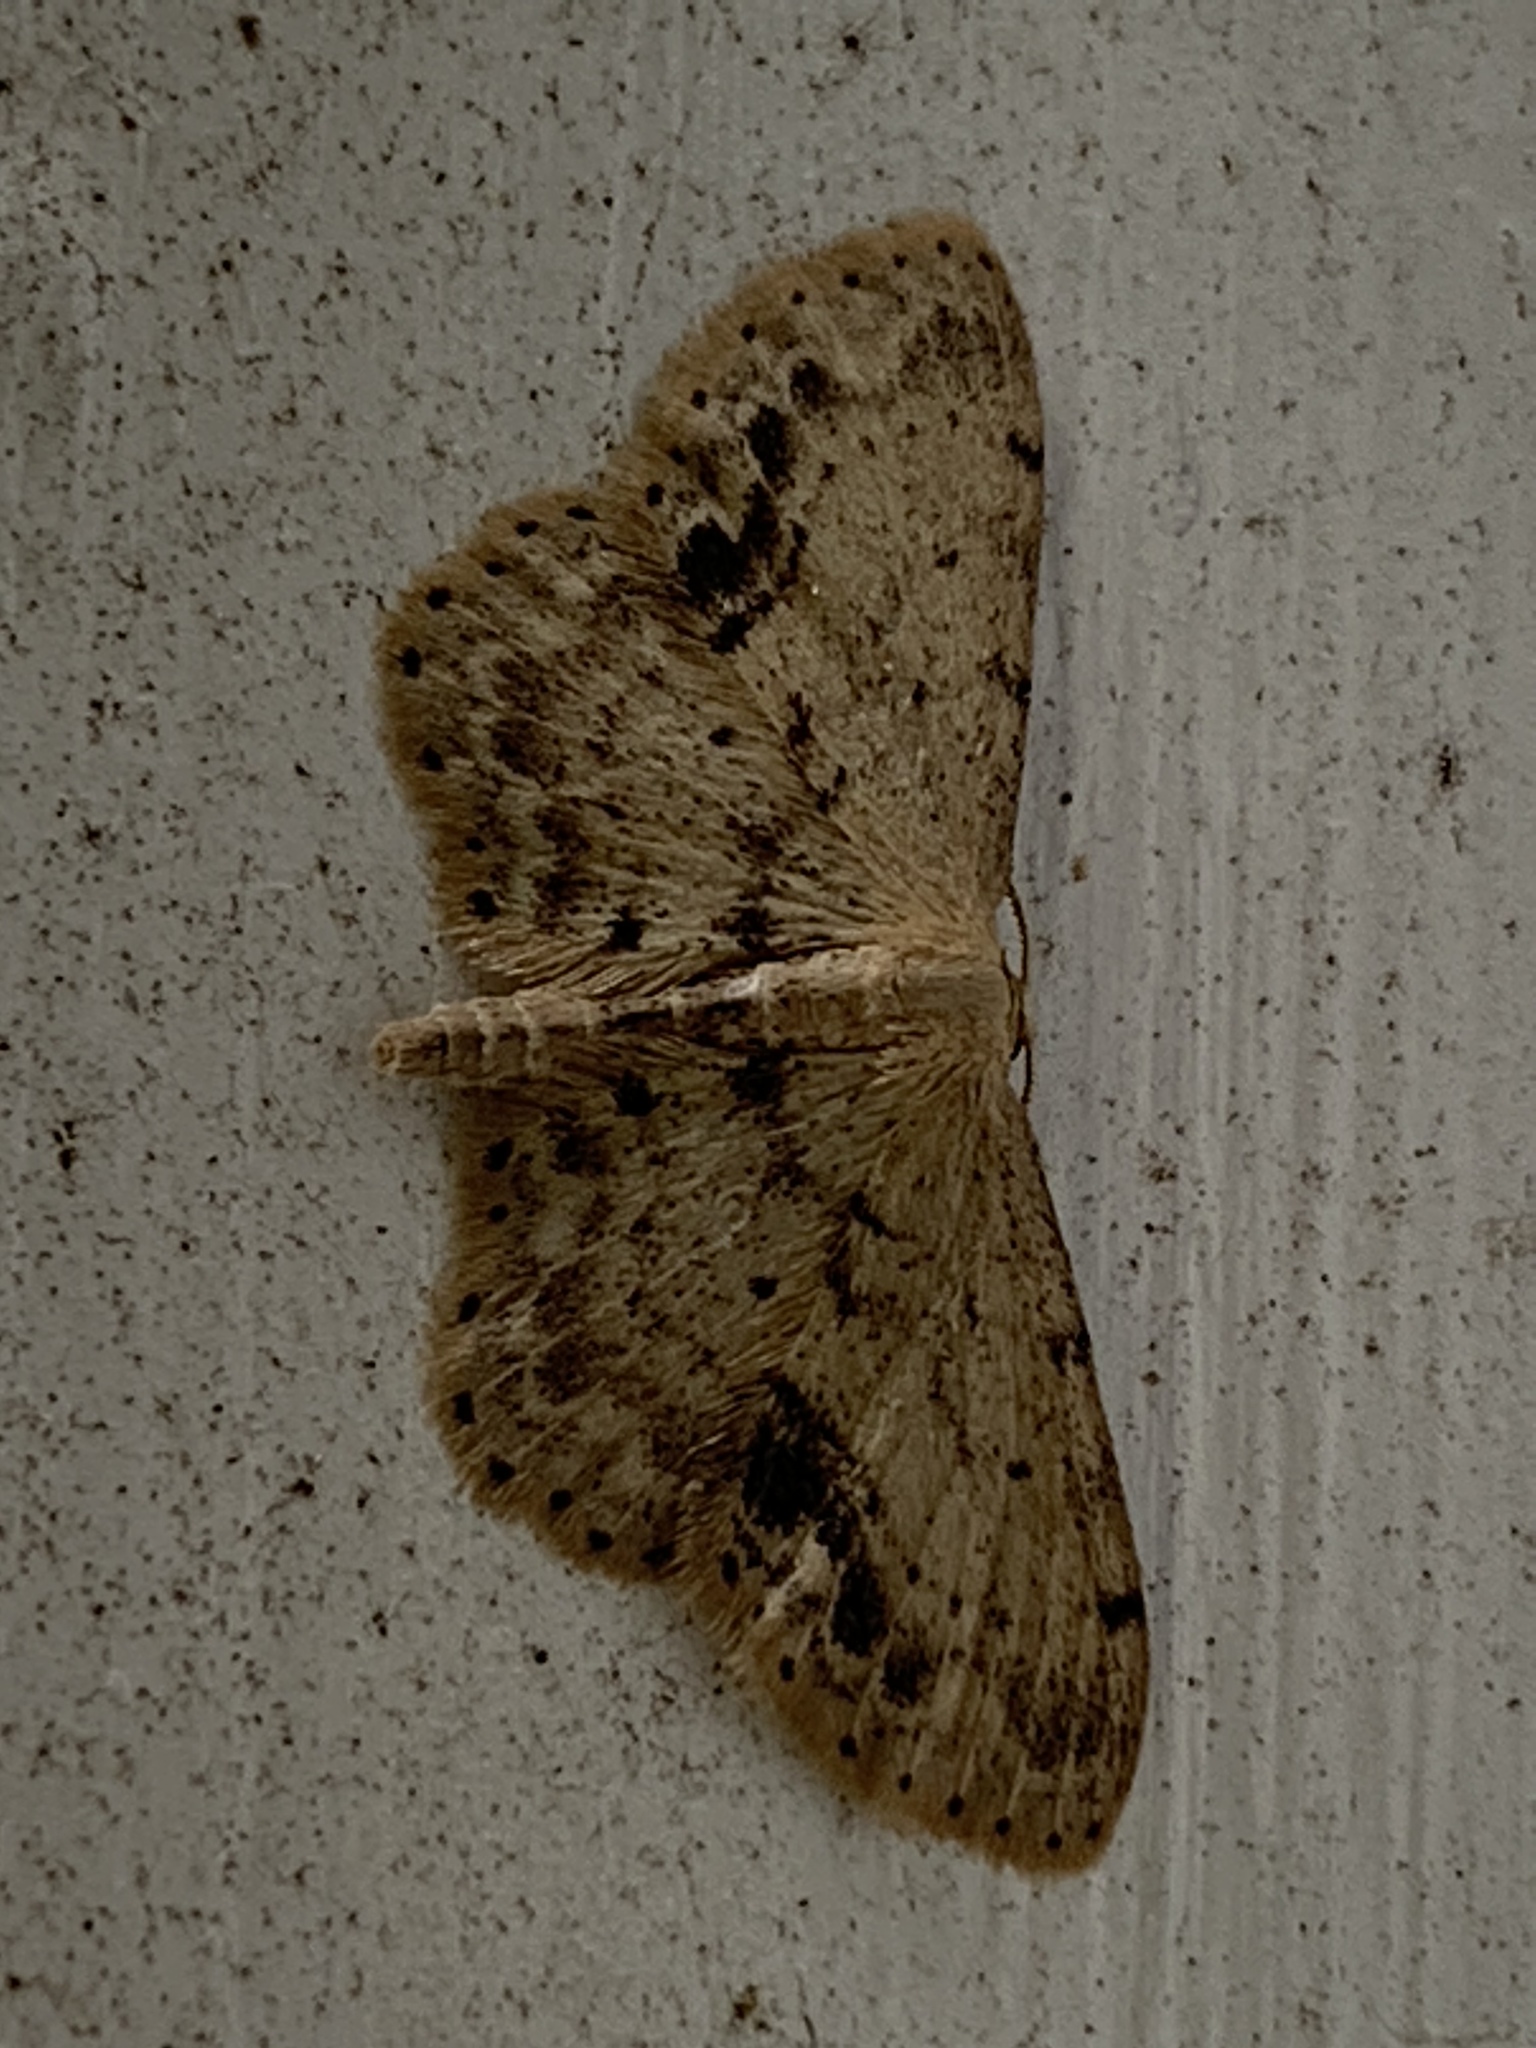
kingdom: Animalia
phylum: Arthropoda
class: Insecta
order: Lepidoptera
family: Geometridae
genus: Idaea
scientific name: Idaea dimidiata
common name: Single-dotted wave
